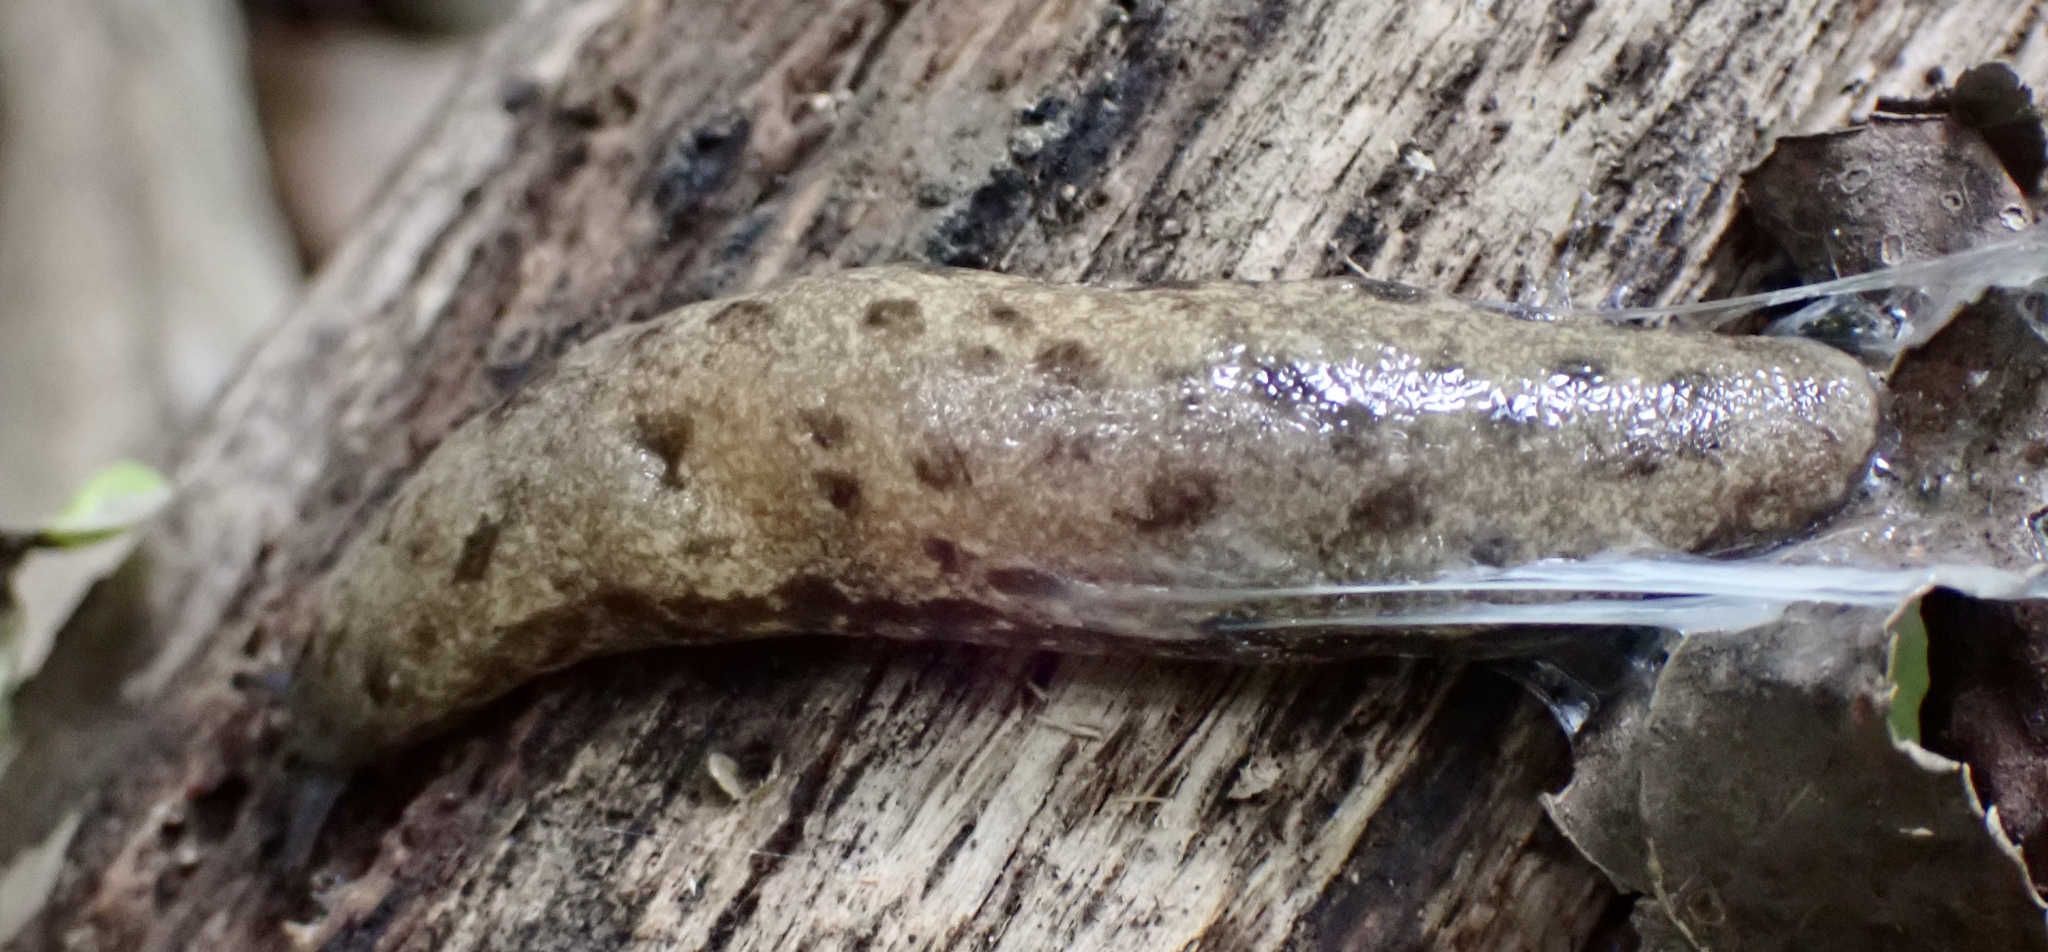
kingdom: Animalia
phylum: Mollusca
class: Gastropoda
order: Stylommatophora
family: Philomycidae
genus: Megapallifera
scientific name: Megapallifera mutabilis
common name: Changeable mantleslug
